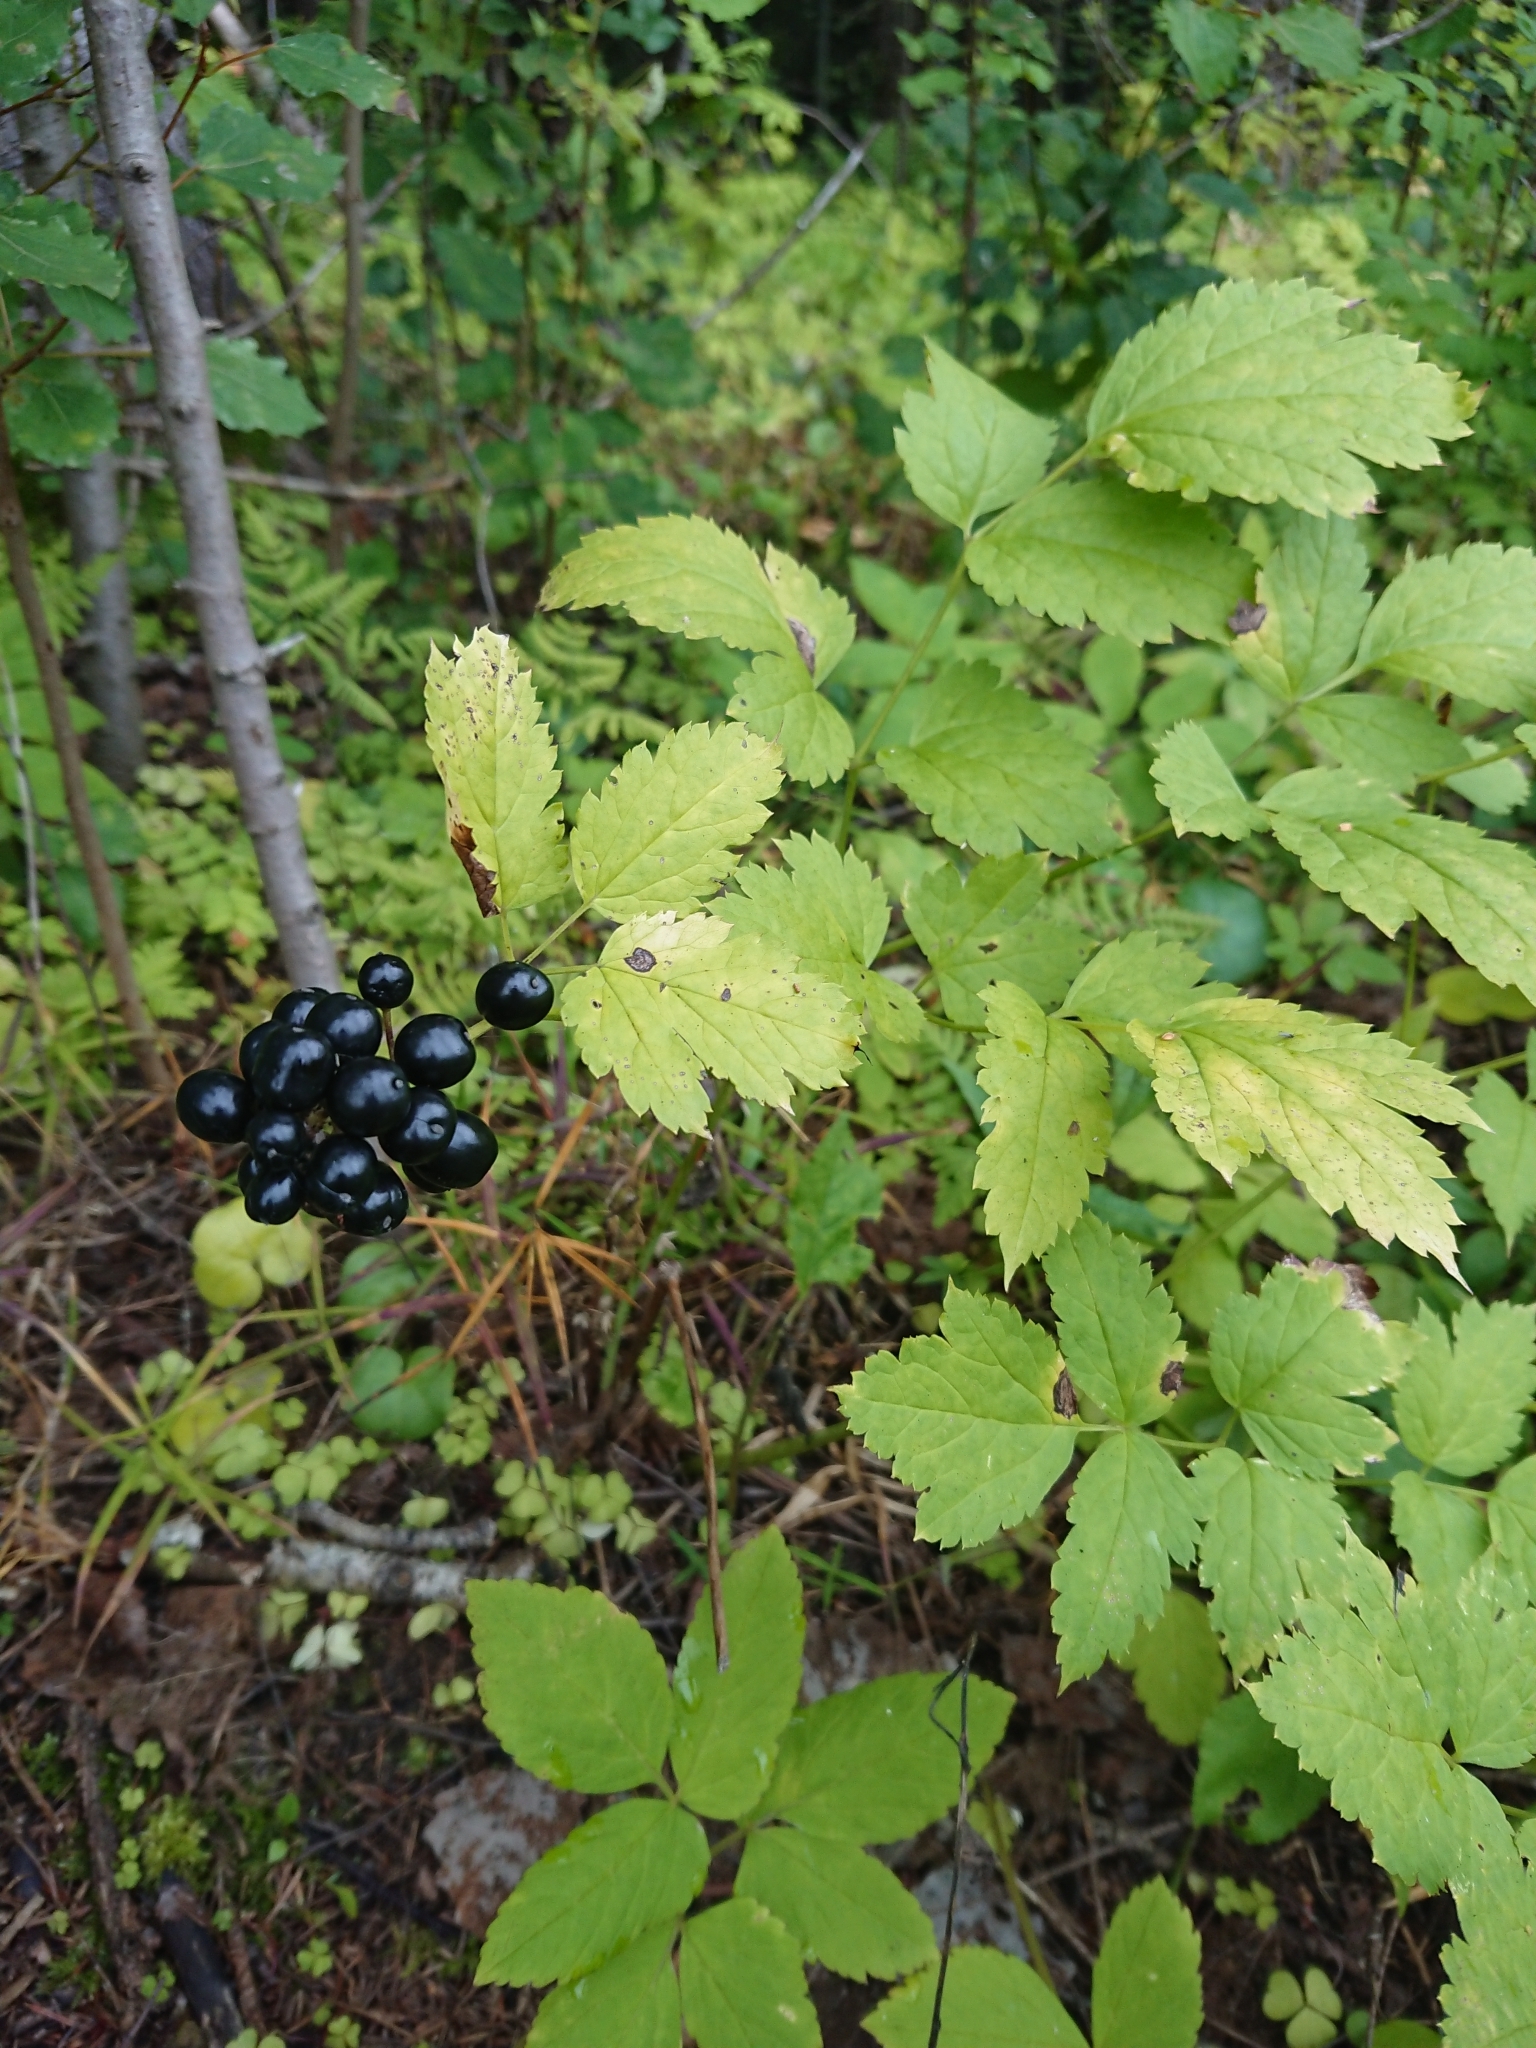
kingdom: Plantae
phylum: Tracheophyta
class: Magnoliopsida
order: Ranunculales
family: Ranunculaceae
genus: Actaea
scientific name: Actaea spicata
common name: Baneberry
